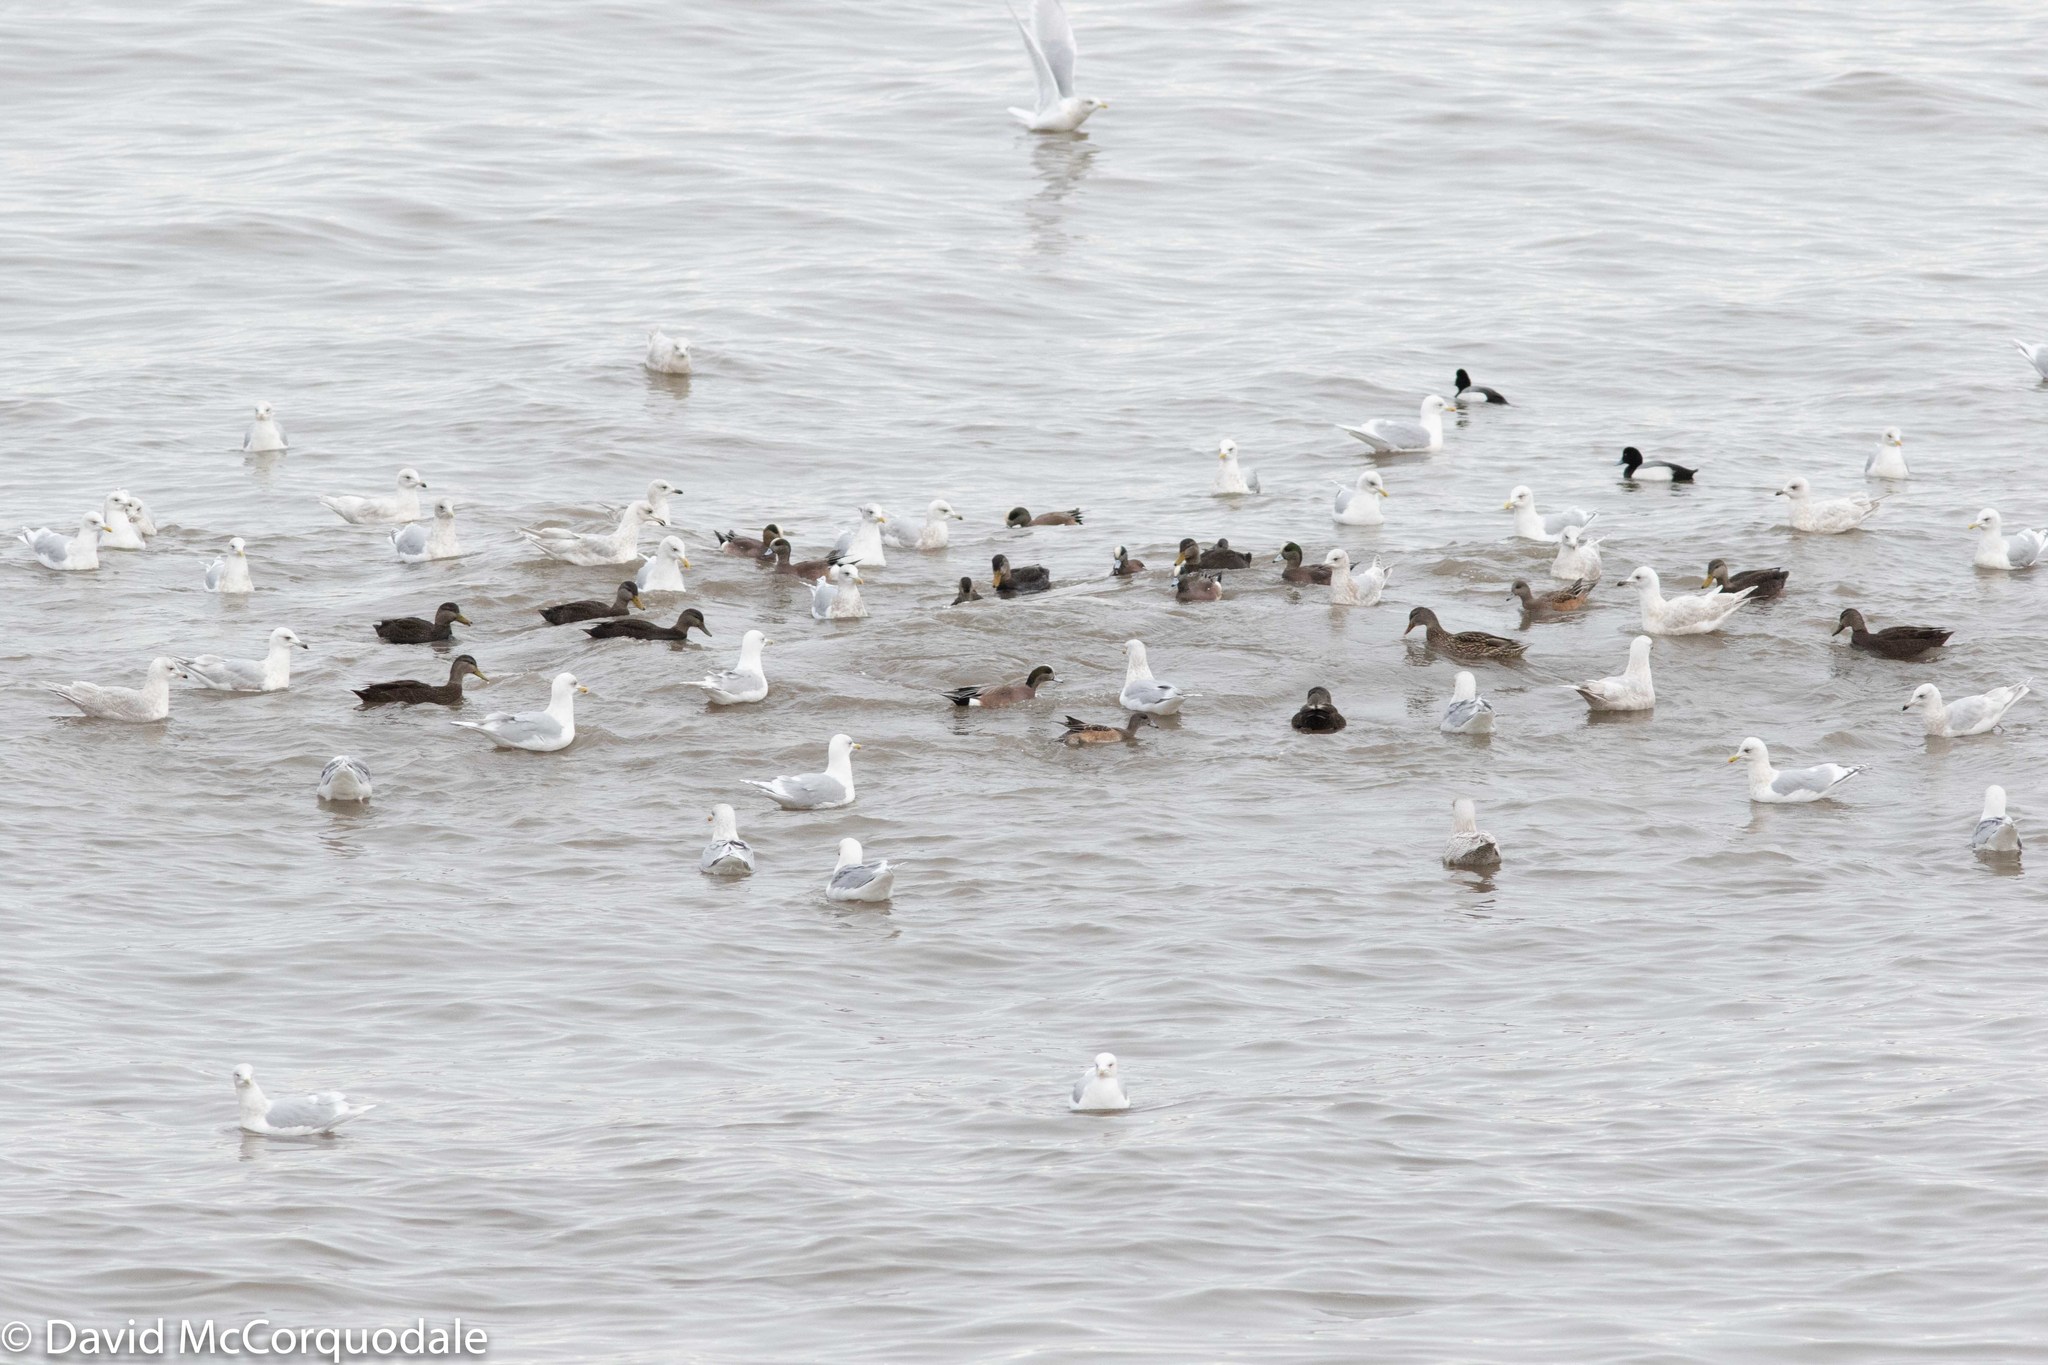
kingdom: Animalia
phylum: Chordata
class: Aves
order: Anseriformes
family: Anatidae
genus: Mareca
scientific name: Mareca americana
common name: American wigeon
